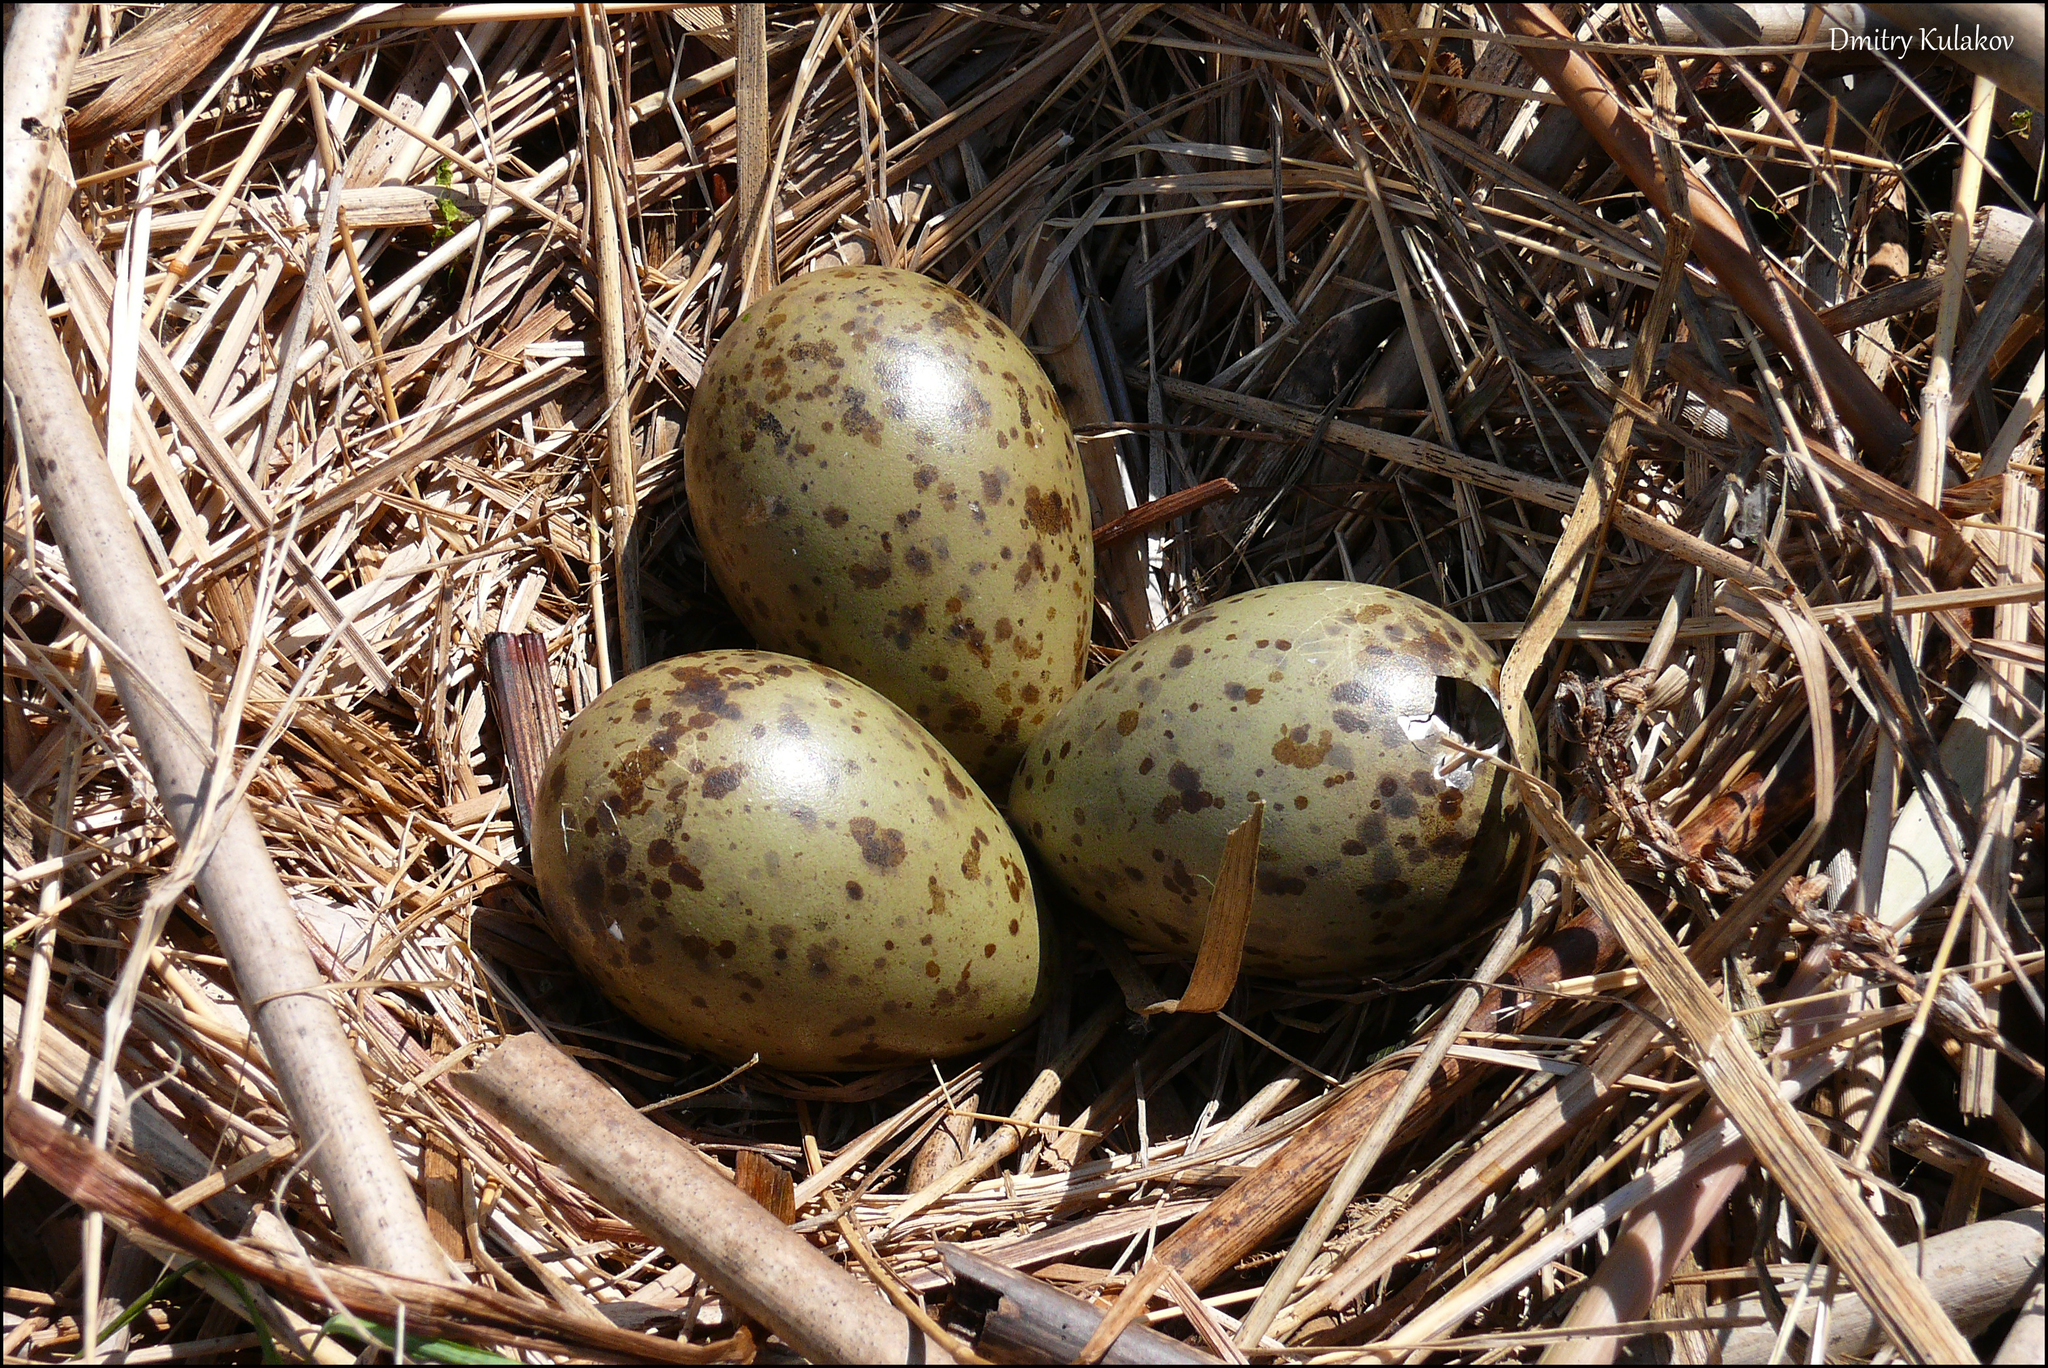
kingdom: Animalia
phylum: Chordata
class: Aves
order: Charadriiformes
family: Laridae
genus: Chroicocephalus
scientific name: Chroicocephalus ridibundus
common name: Black-headed gull
